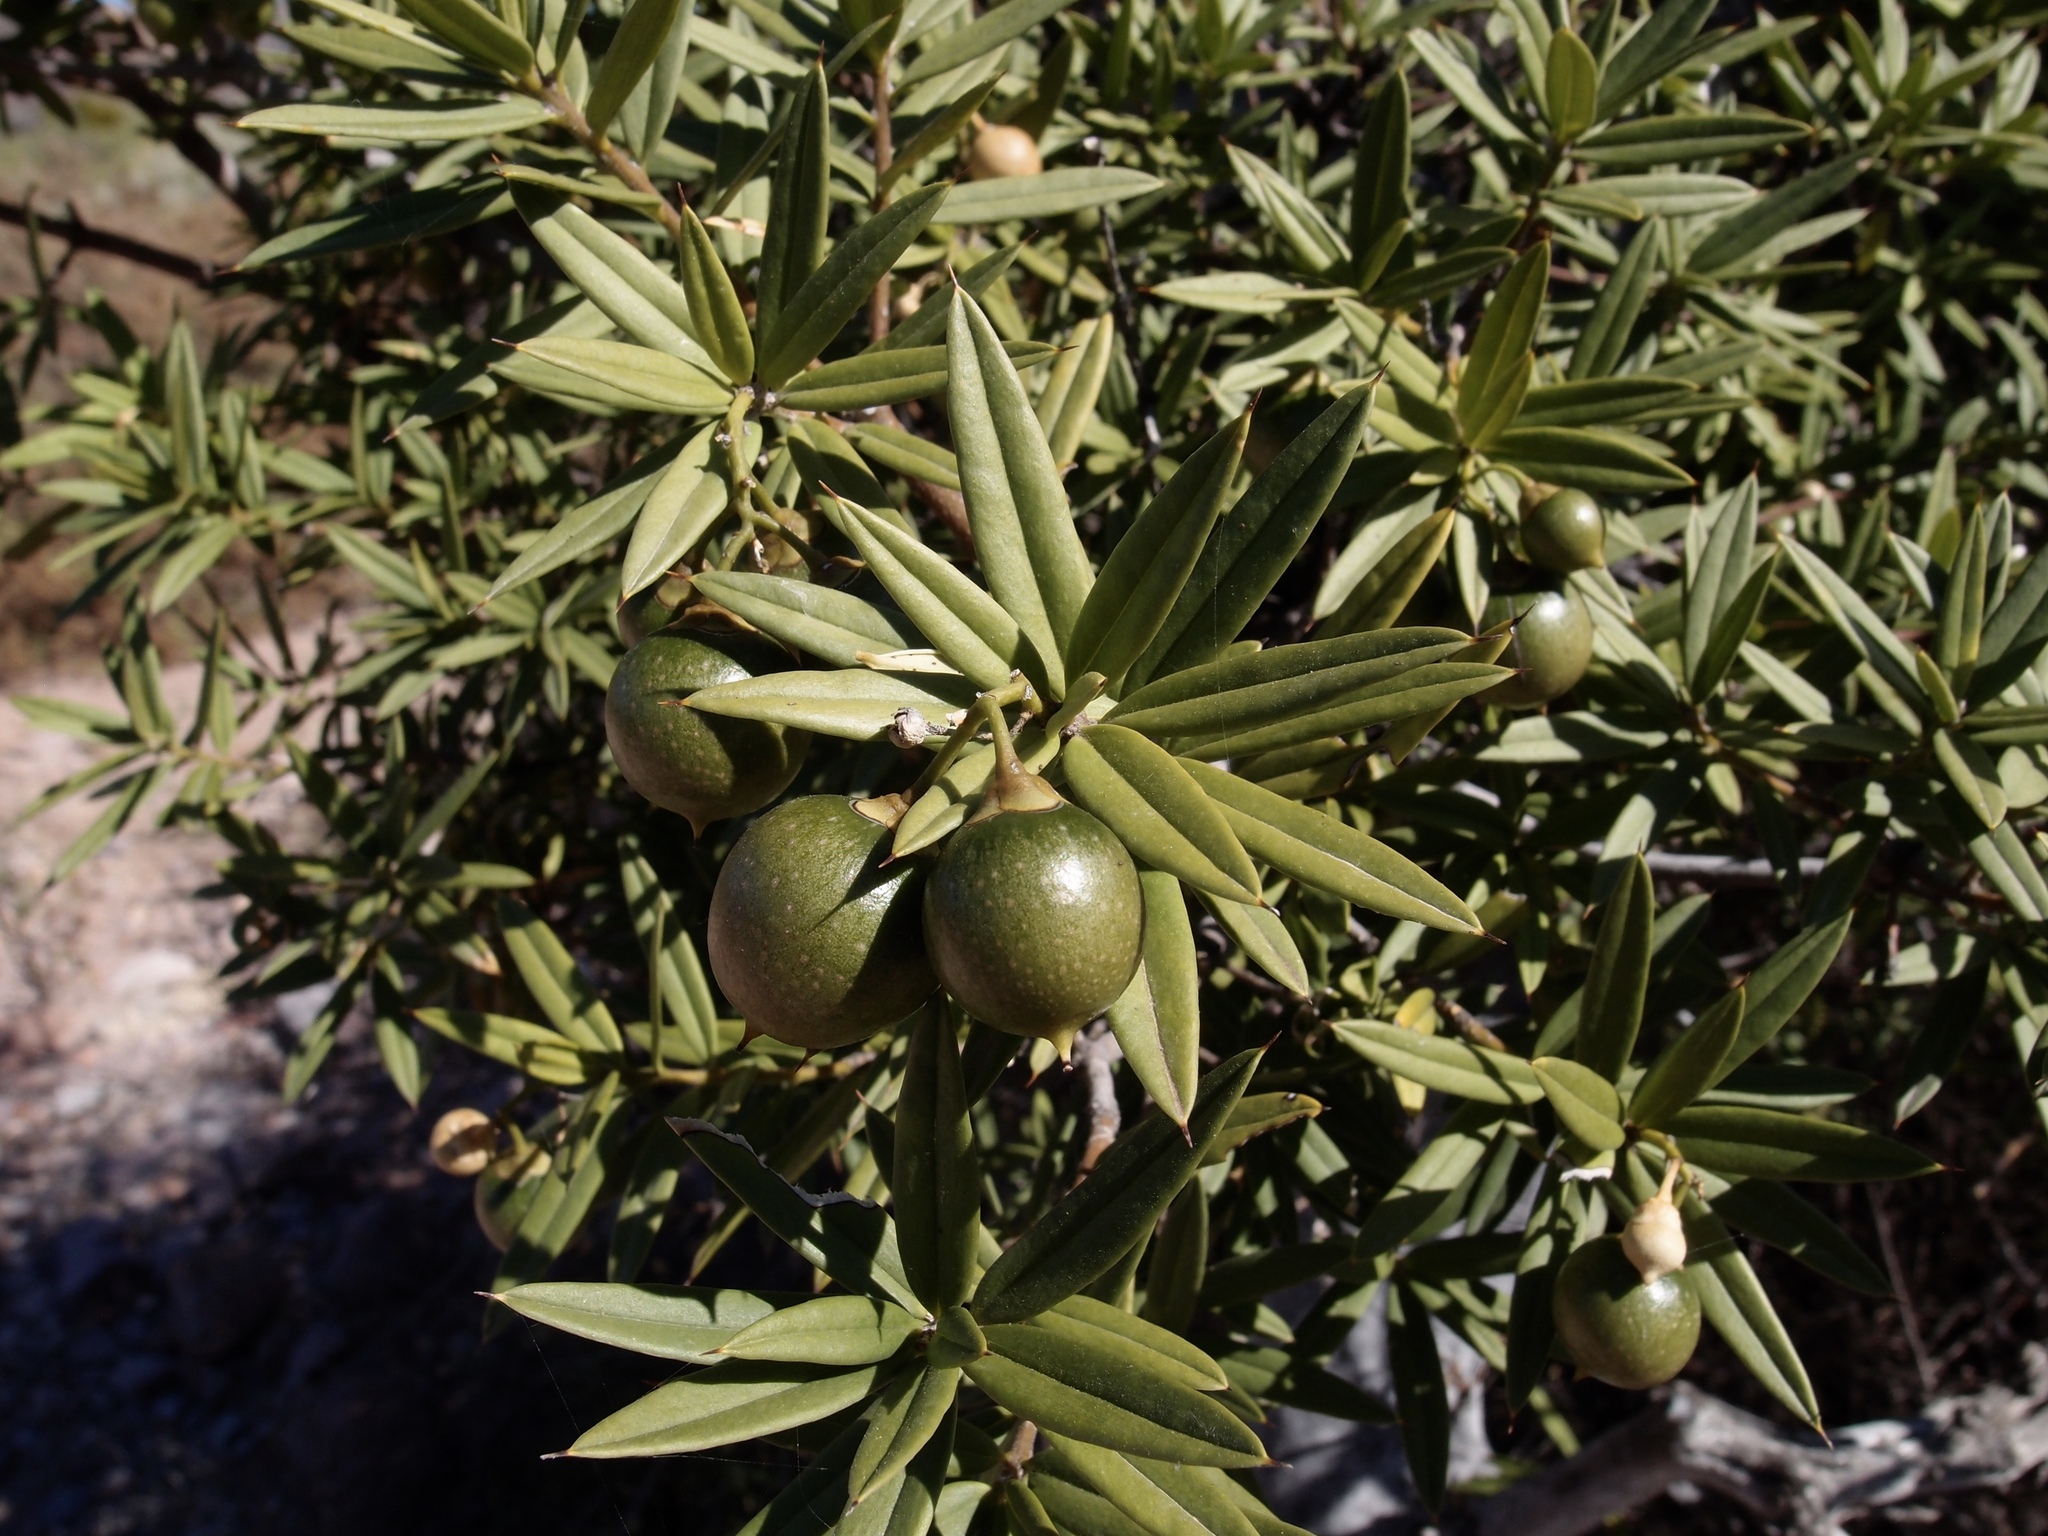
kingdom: Plantae
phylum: Tracheophyta
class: Magnoliopsida
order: Ericales
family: Primulaceae
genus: Bonellia
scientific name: Bonellia macrocarpa
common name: Primrose
